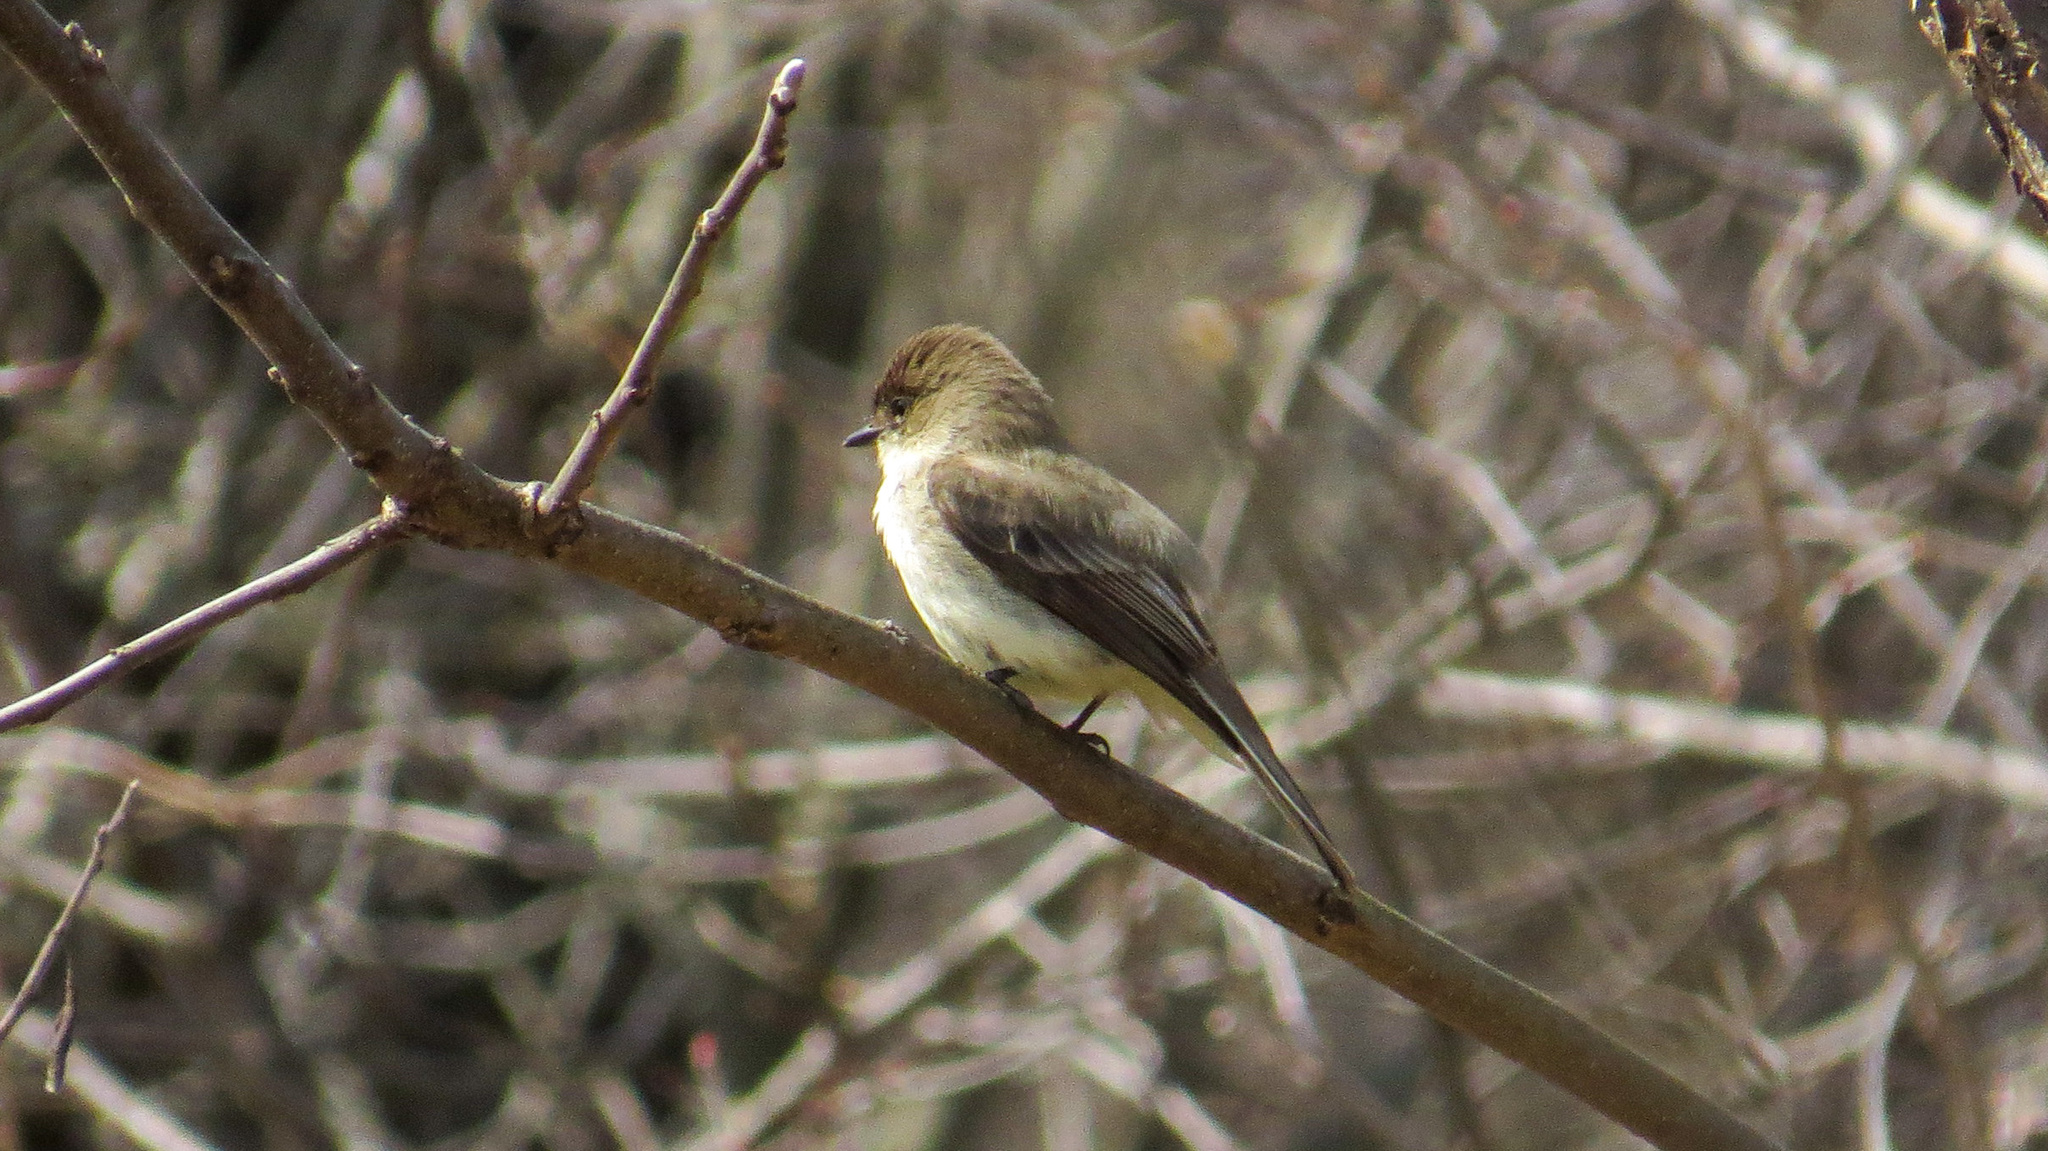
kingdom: Animalia
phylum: Chordata
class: Aves
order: Passeriformes
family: Tyrannidae
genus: Sayornis
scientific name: Sayornis phoebe
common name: Eastern phoebe
